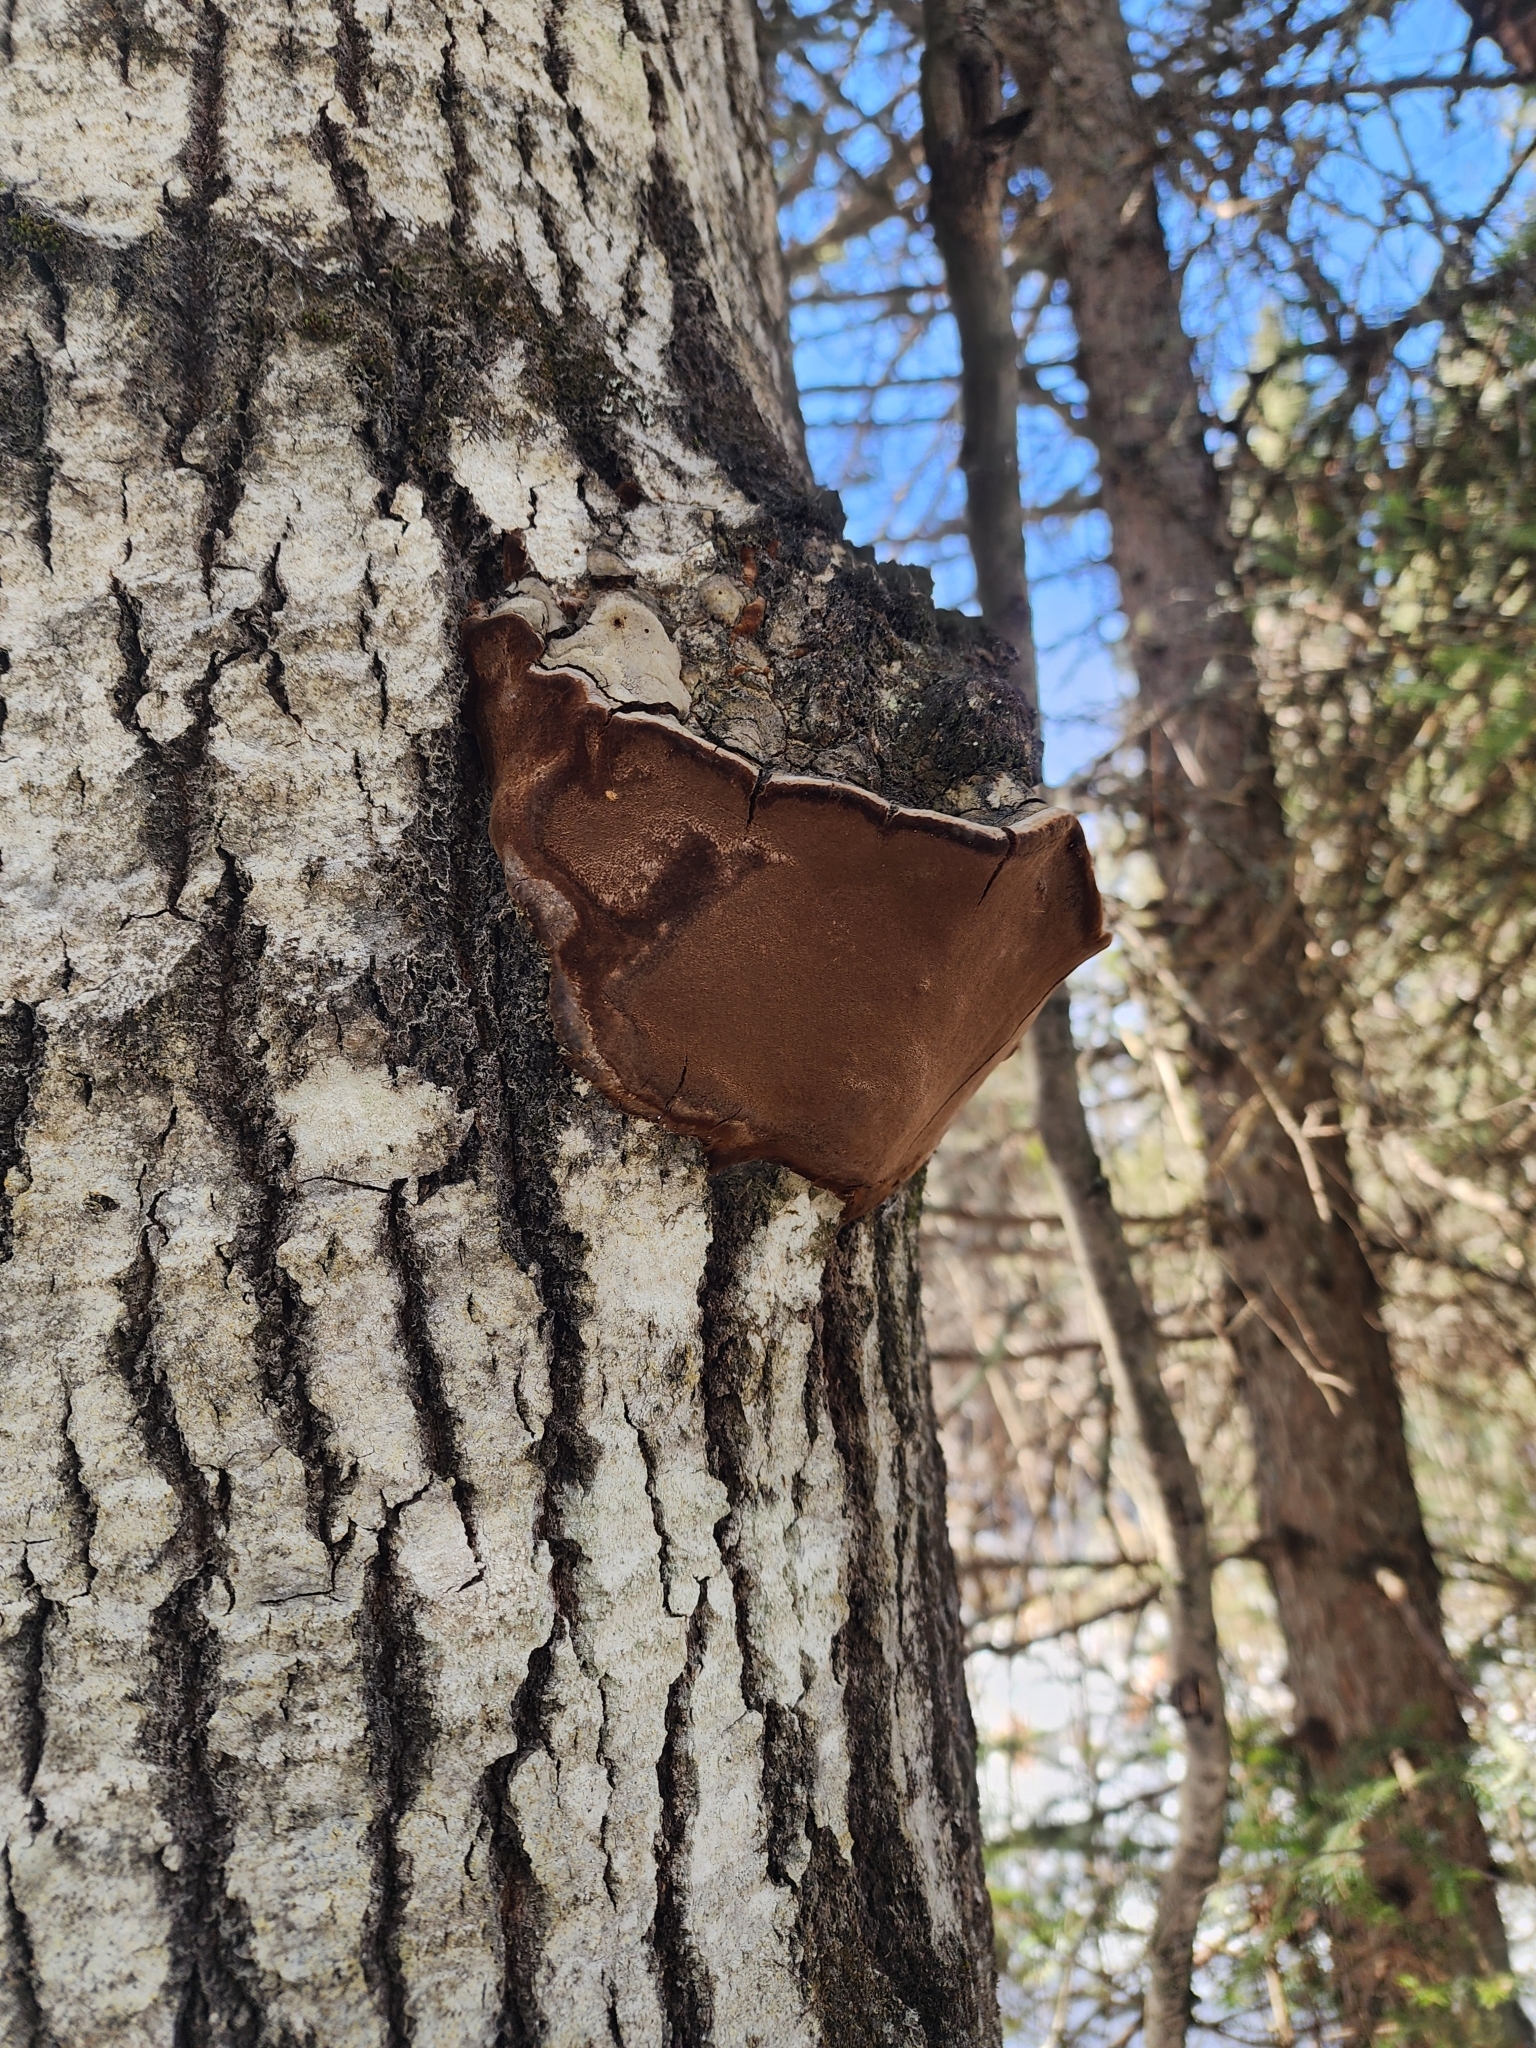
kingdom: Fungi
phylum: Basidiomycota
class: Agaricomycetes
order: Hymenochaetales
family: Hymenochaetaceae
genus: Phellinus
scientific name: Phellinus tremulae
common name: Aspen bracket
